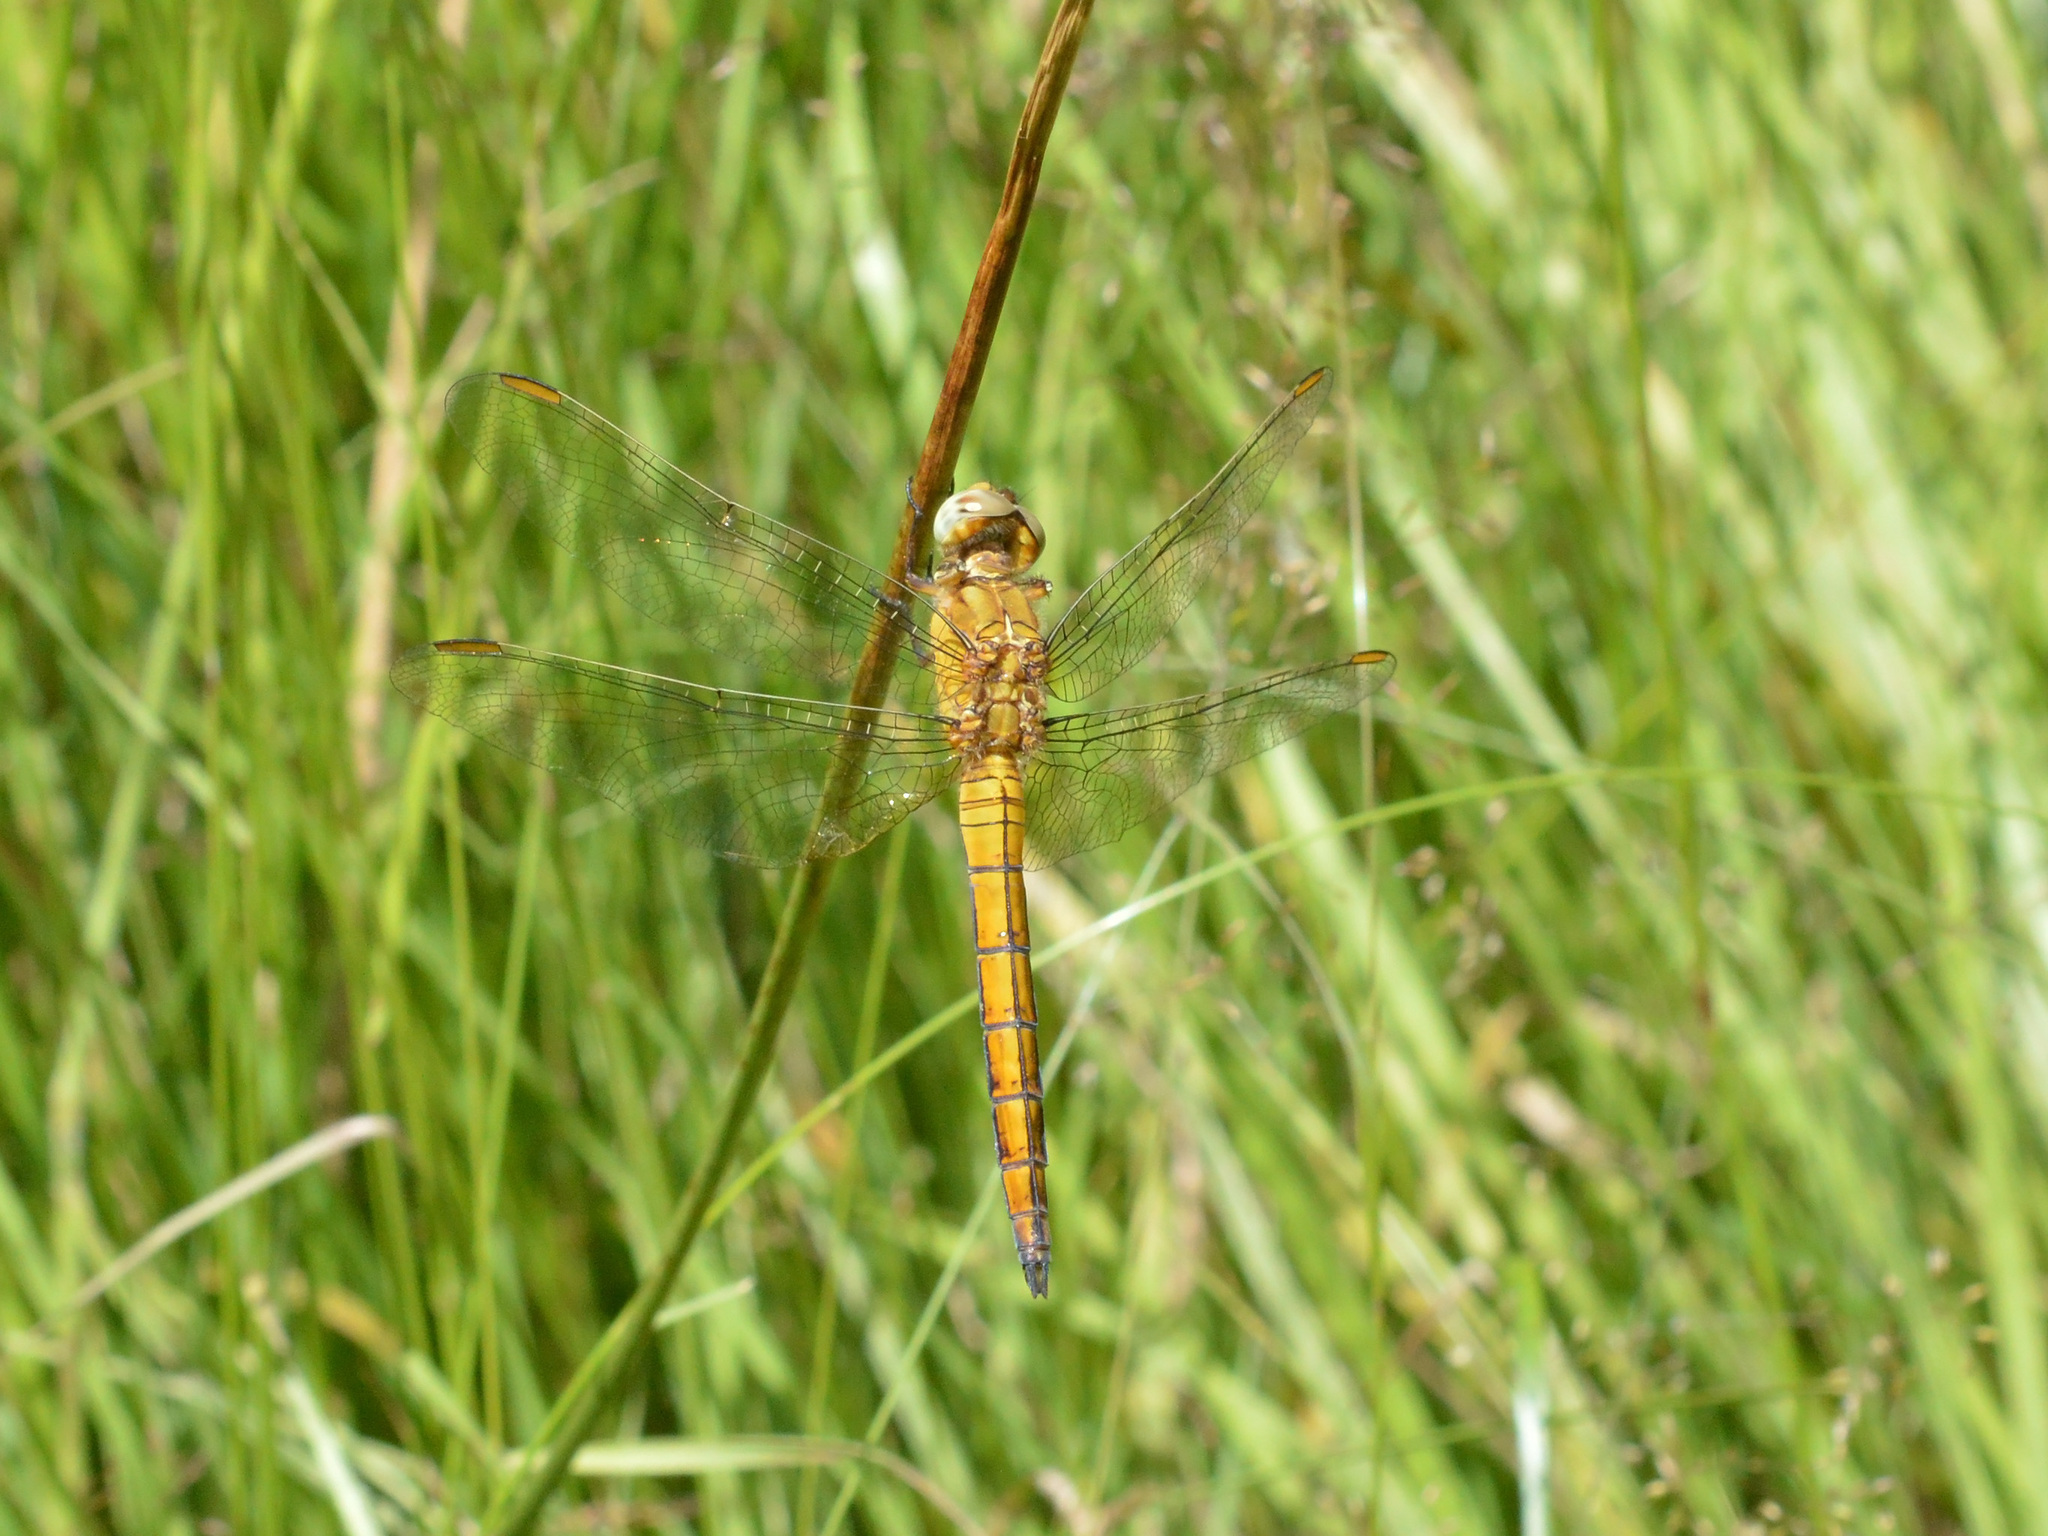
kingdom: Animalia
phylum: Arthropoda
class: Insecta
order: Odonata
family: Libellulidae
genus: Orthetrum
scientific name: Orthetrum coerulescens
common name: Keeled skimmer
